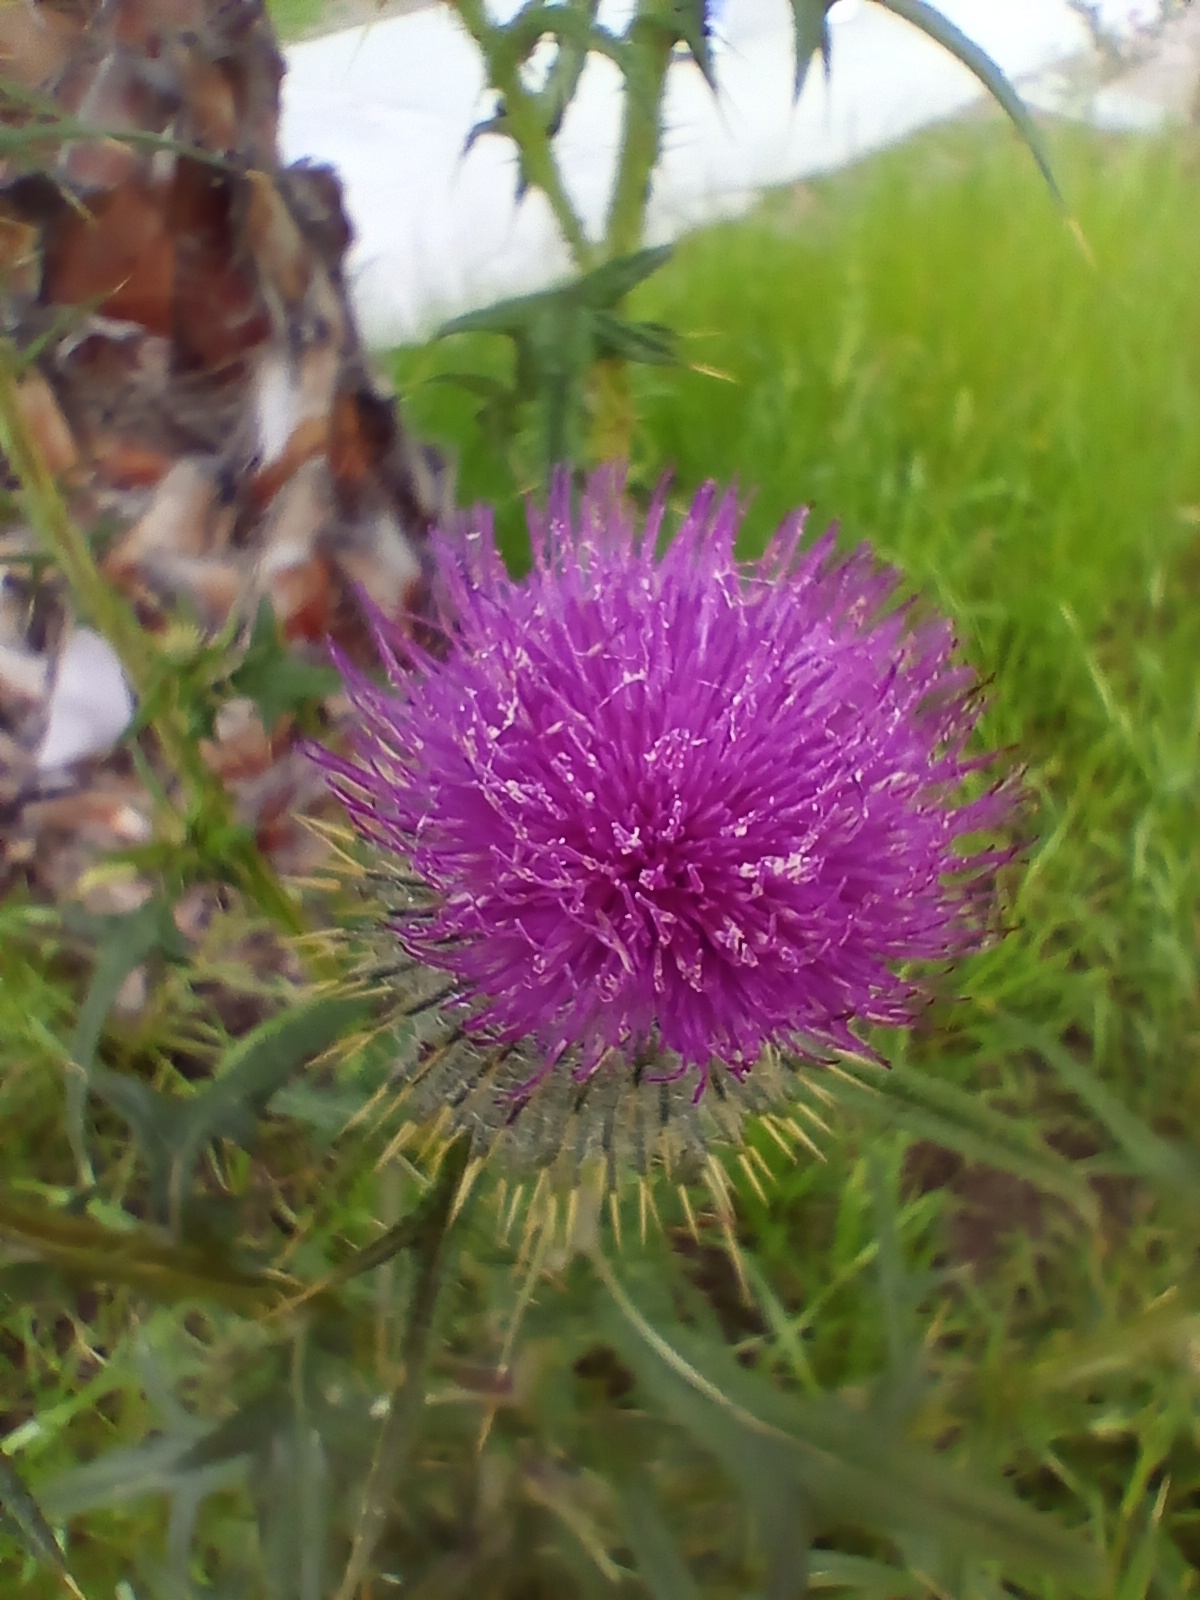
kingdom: Plantae
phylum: Tracheophyta
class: Magnoliopsida
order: Asterales
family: Asteraceae
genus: Cirsium
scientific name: Cirsium vulgare
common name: Bull thistle
